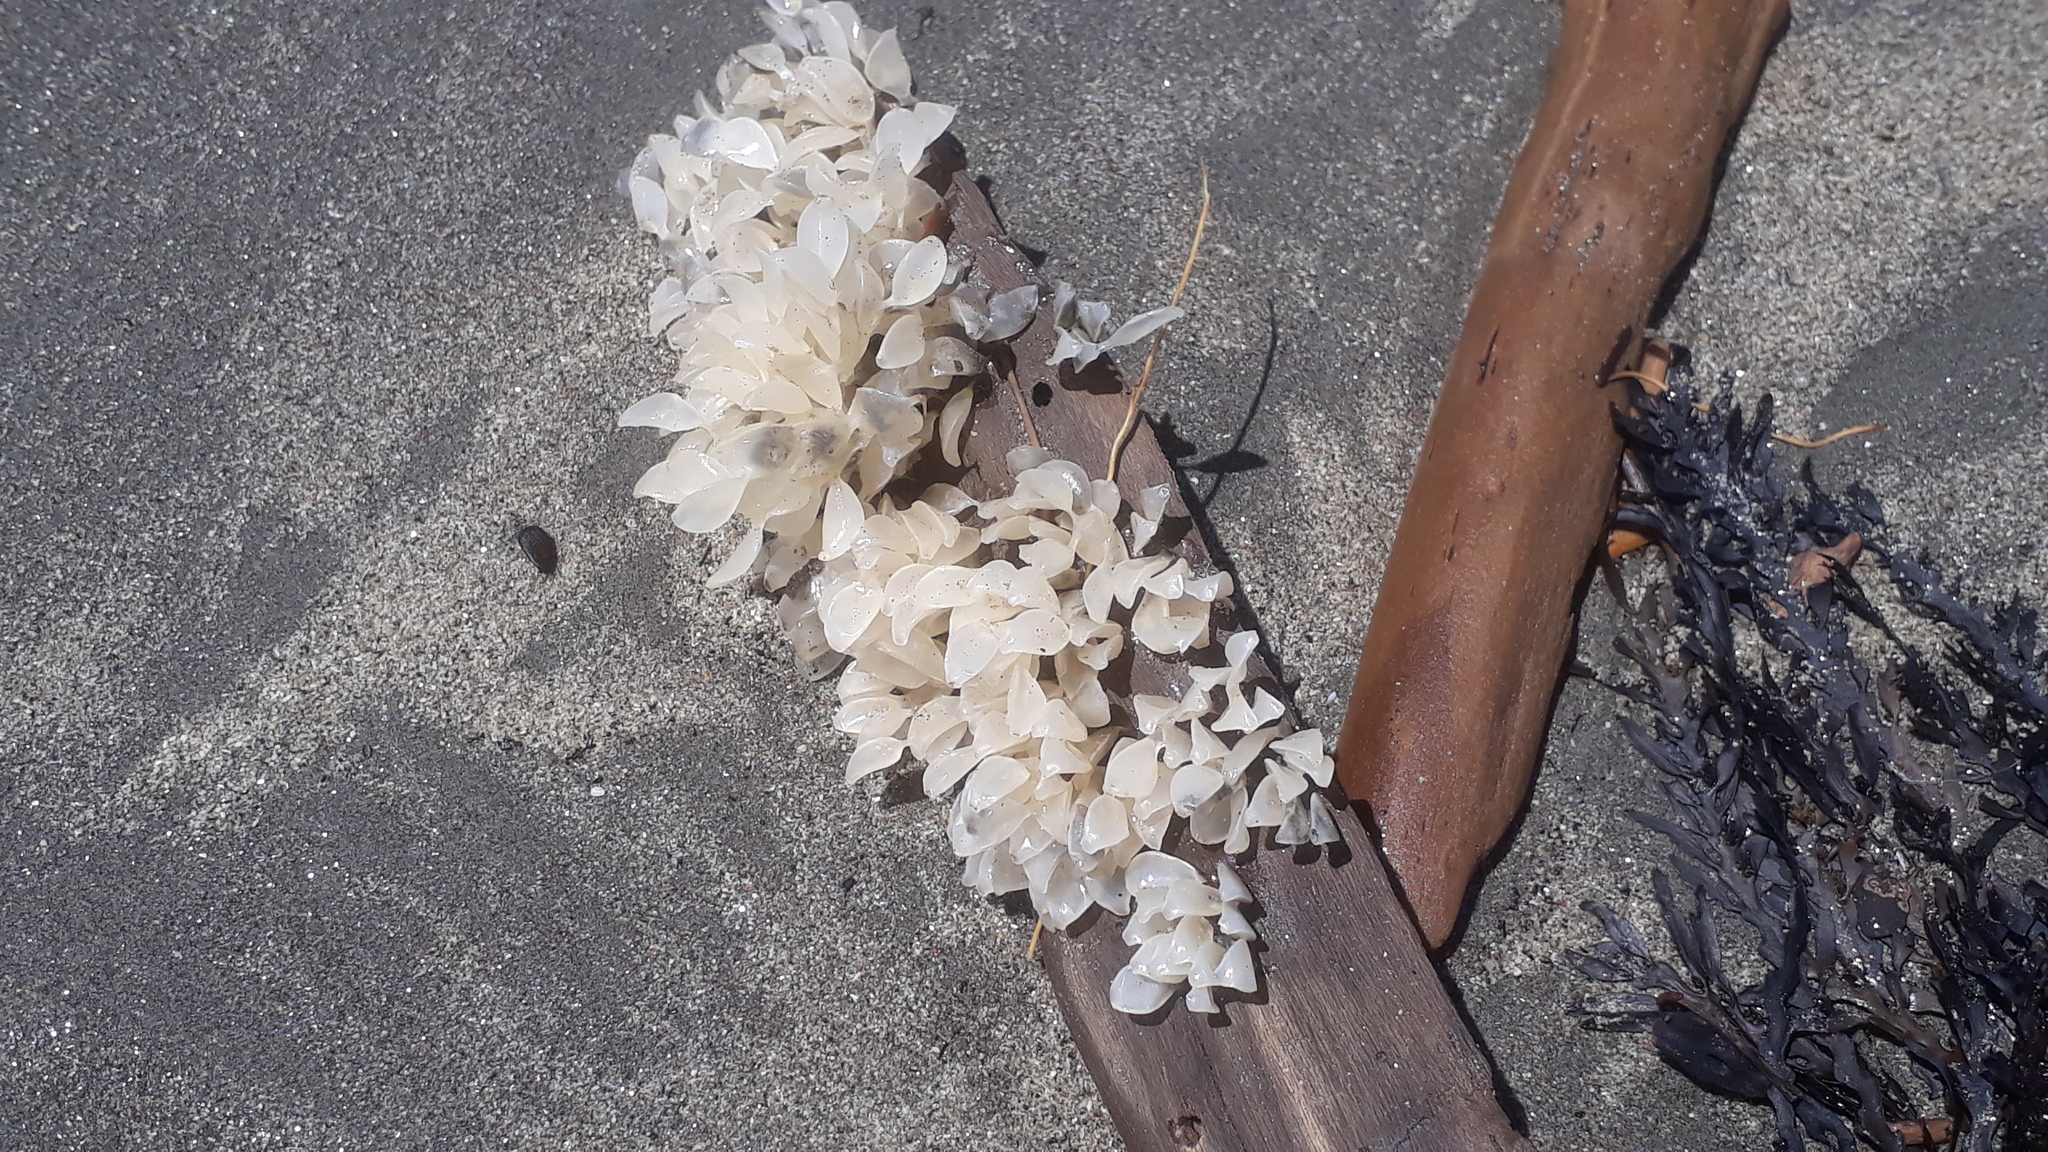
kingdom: Animalia
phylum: Mollusca
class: Gastropoda
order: Neogastropoda
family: Cominellidae
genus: Cominella
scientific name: Cominella adspersa
